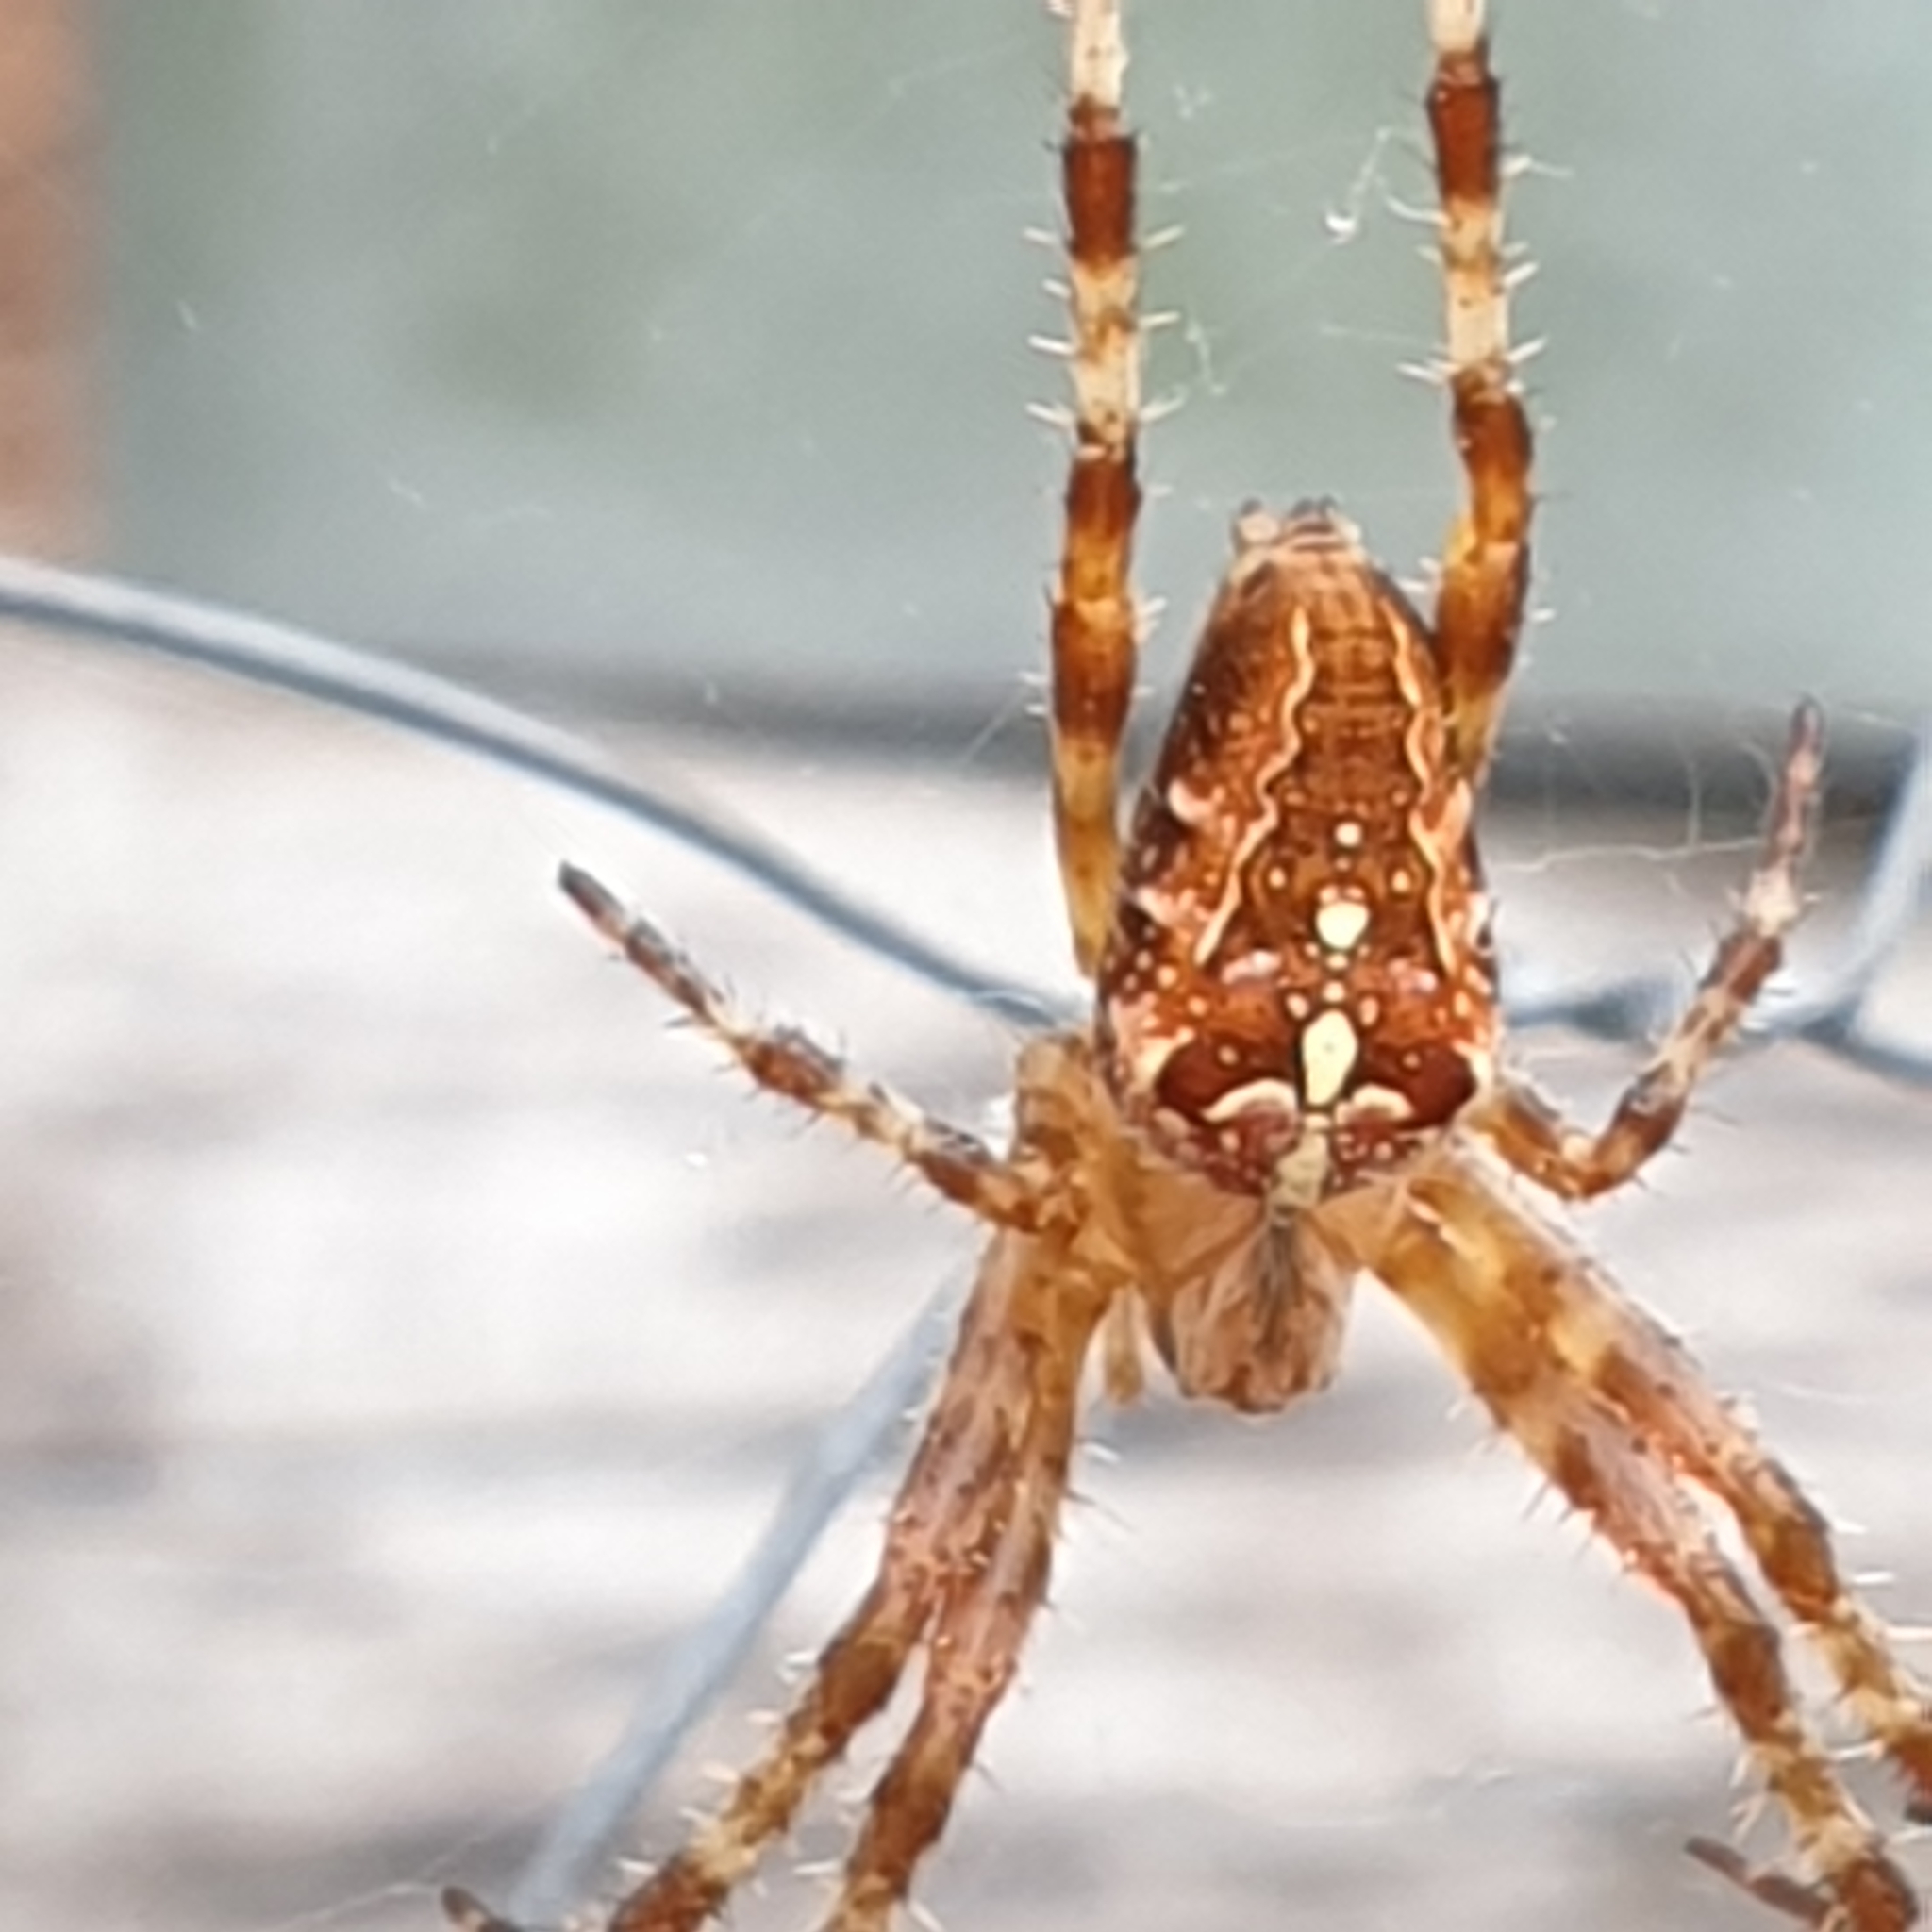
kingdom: Animalia
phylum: Arthropoda
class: Arachnida
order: Araneae
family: Araneidae
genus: Araneus
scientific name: Araneus diadematus
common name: Cross orbweaver
